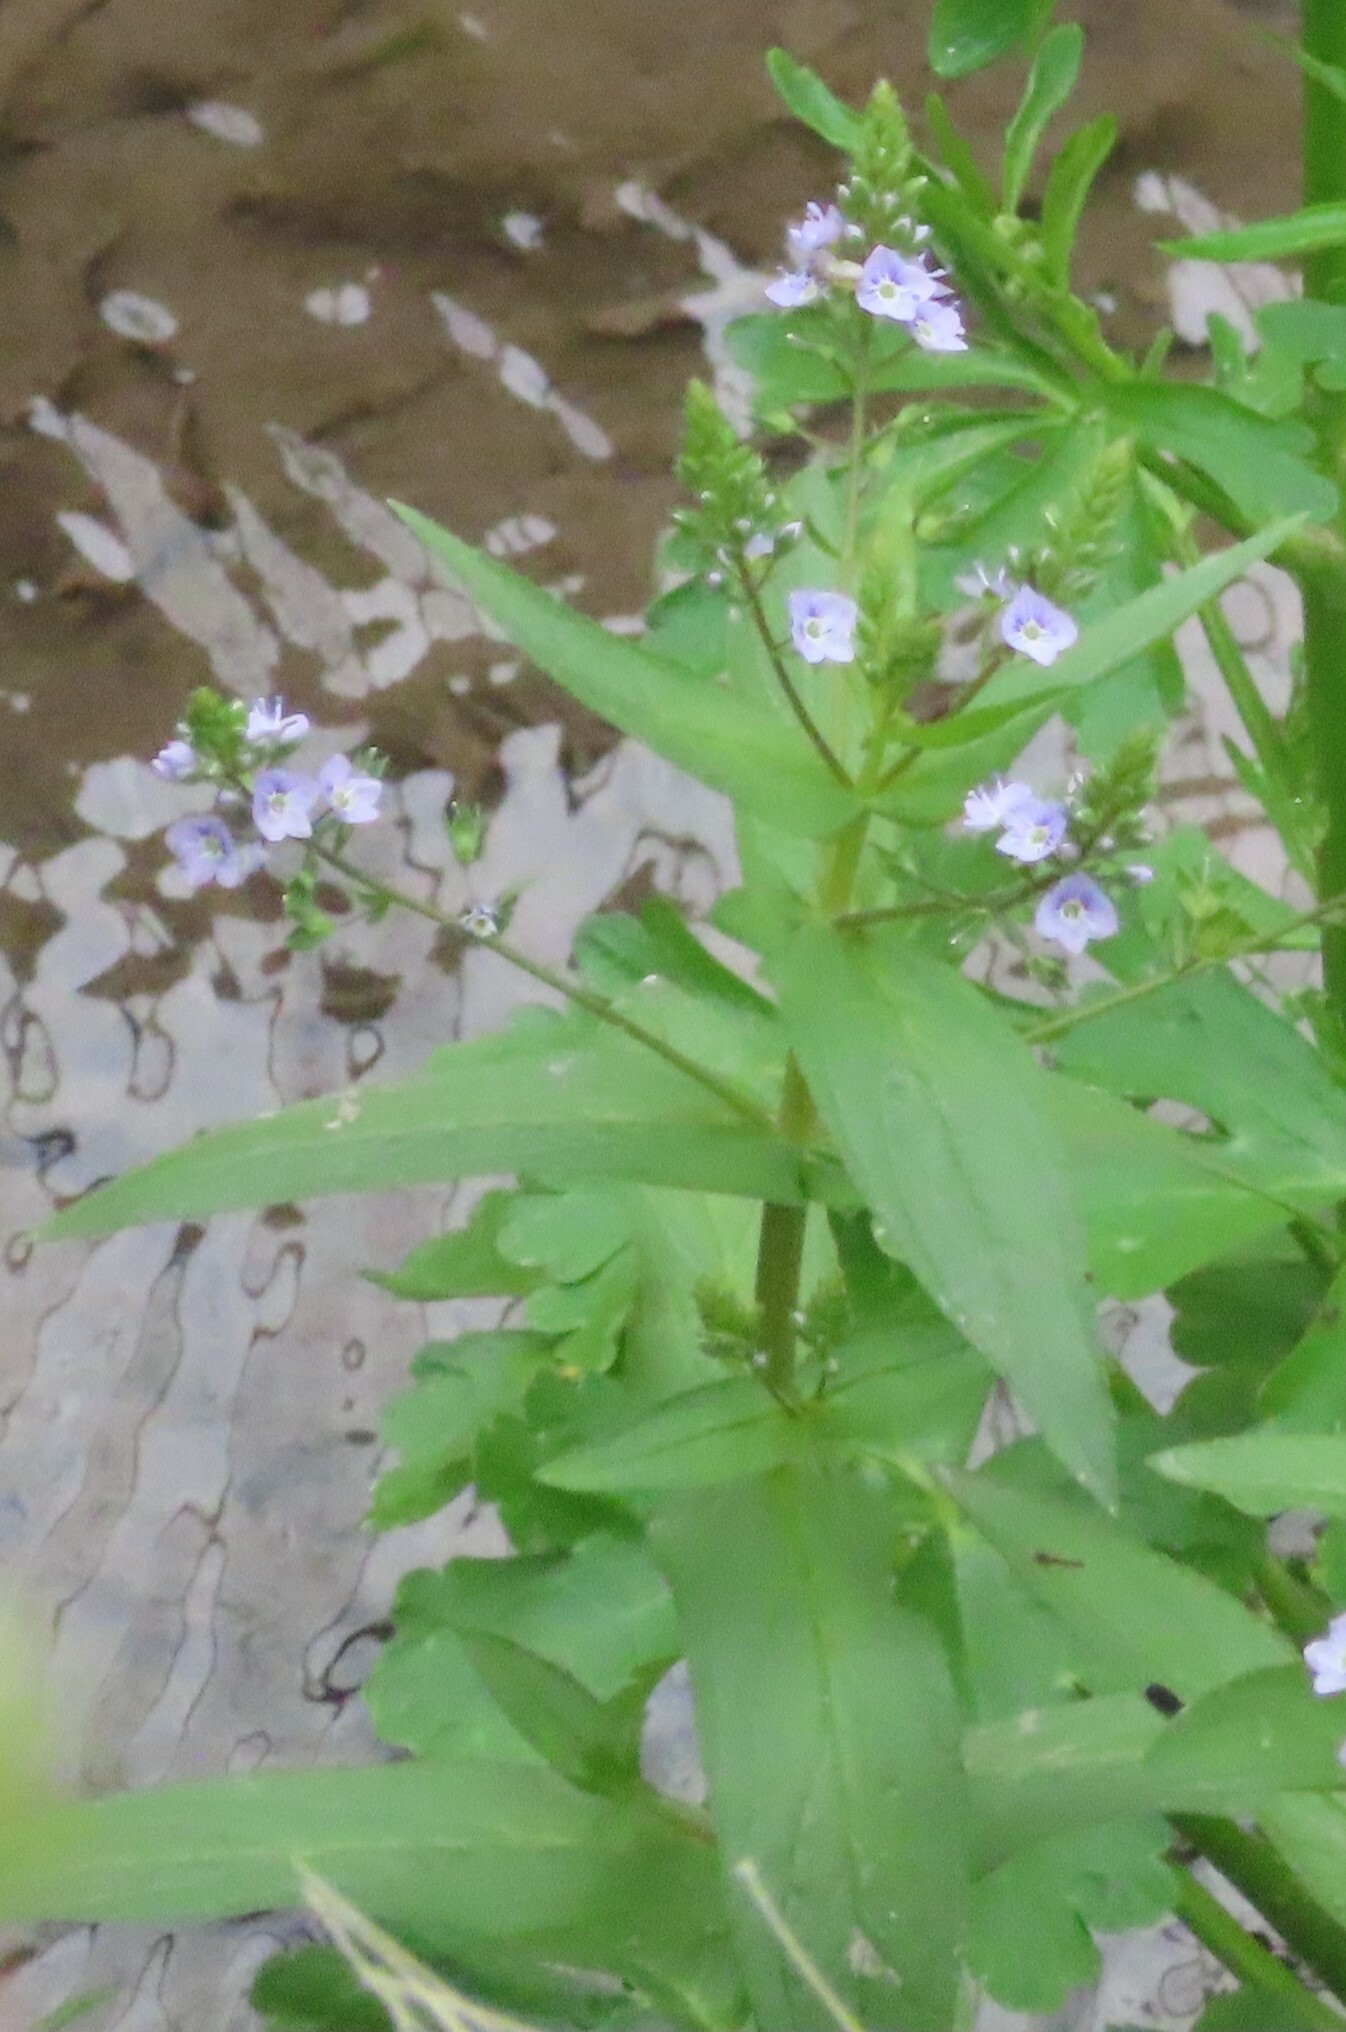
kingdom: Plantae
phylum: Tracheophyta
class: Magnoliopsida
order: Lamiales
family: Plantaginaceae
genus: Veronica
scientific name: Veronica anagallis-aquatica
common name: Water speedwell
